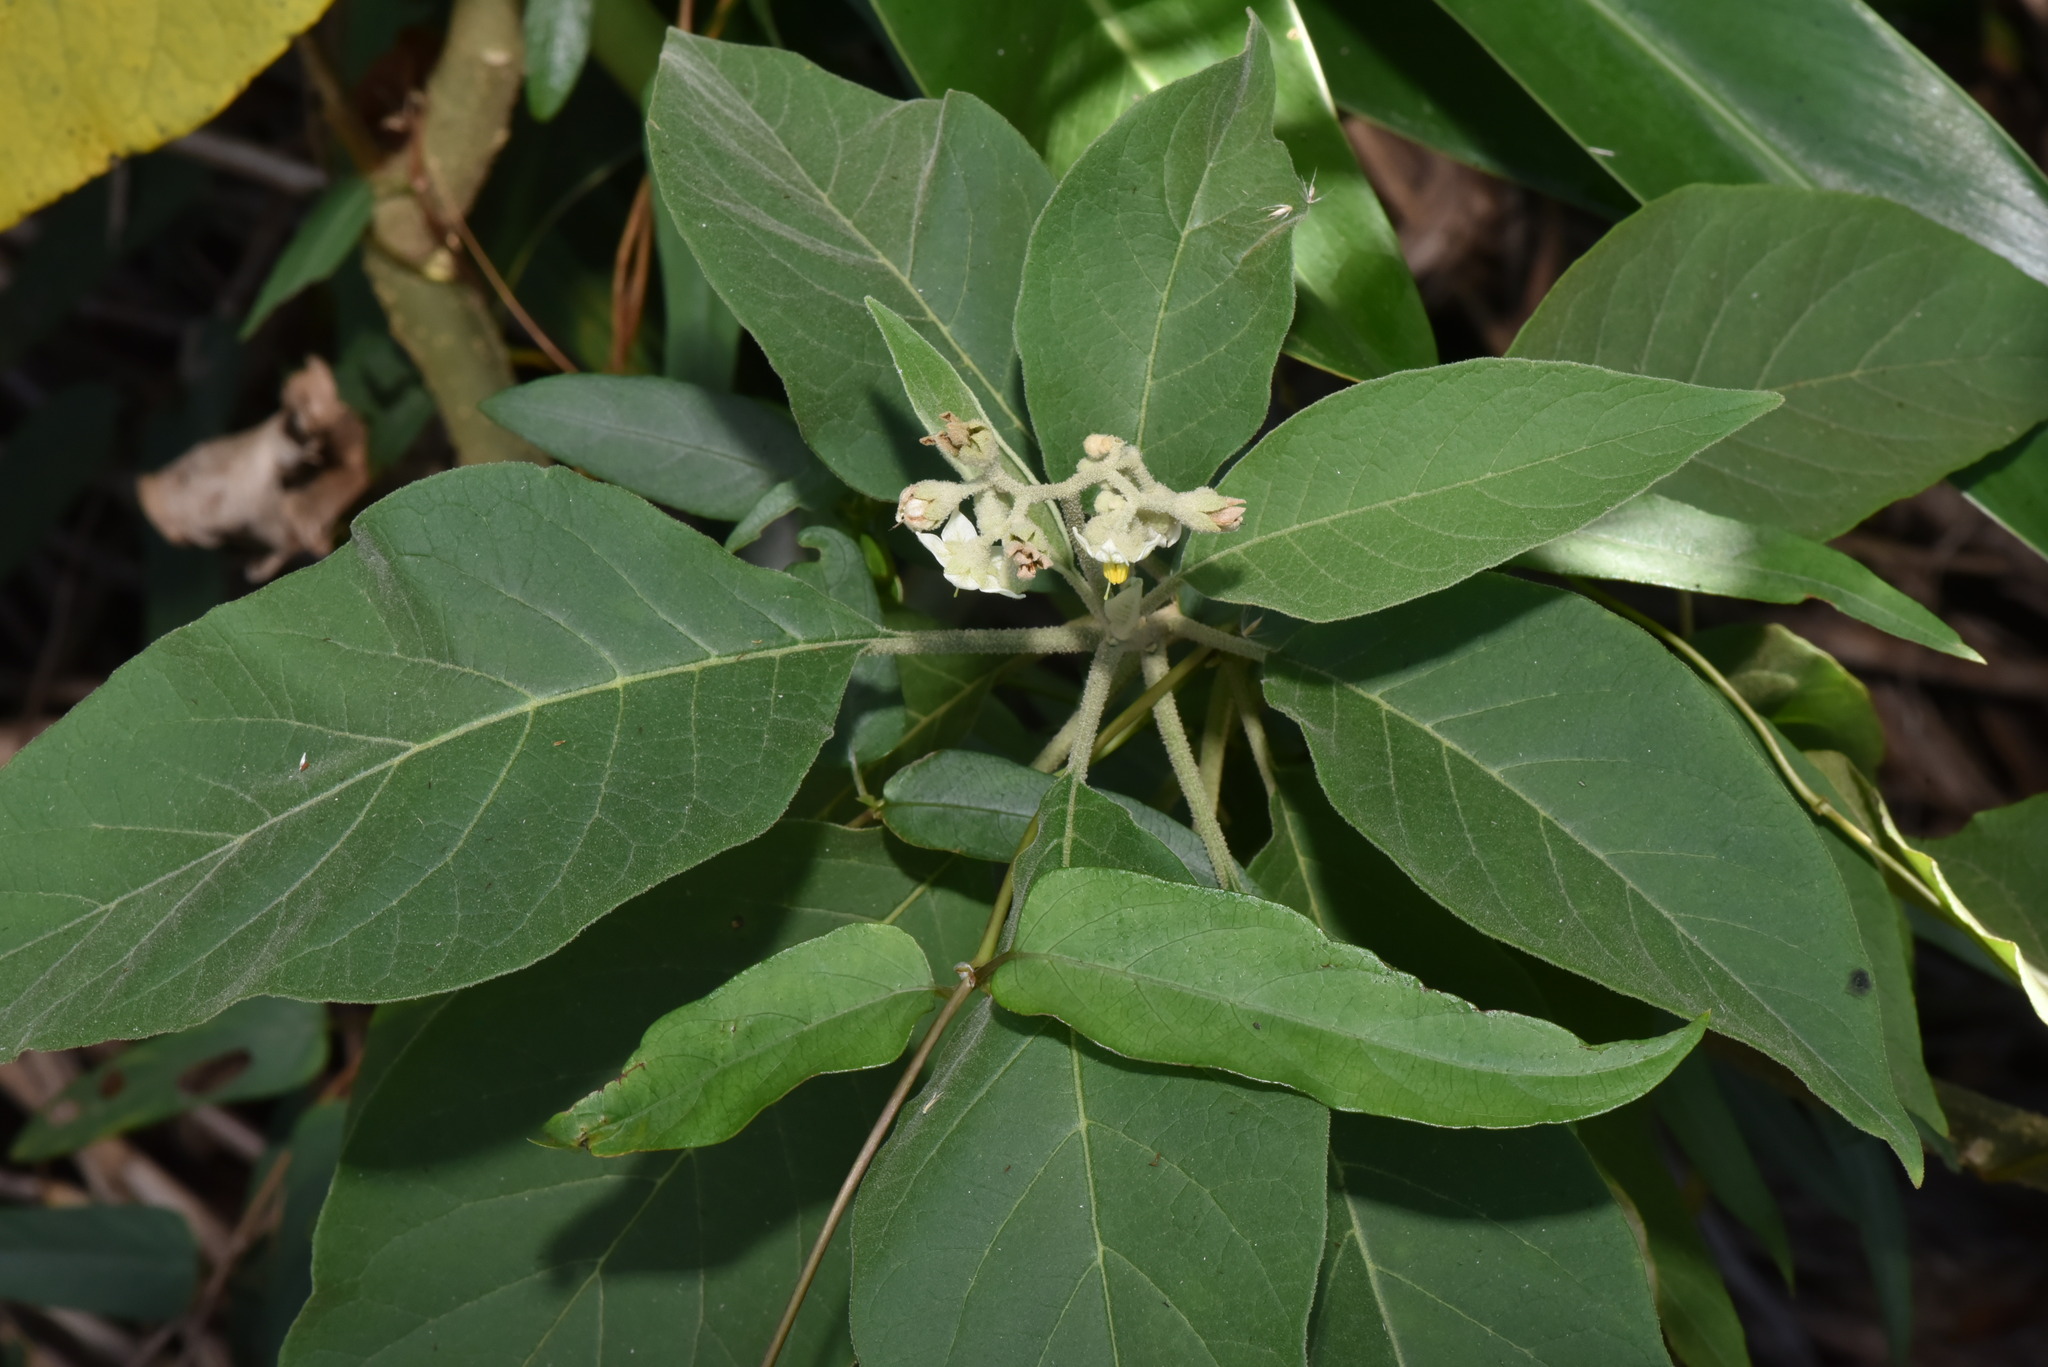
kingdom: Plantae
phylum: Tracheophyta
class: Magnoliopsida
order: Solanales
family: Solanaceae
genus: Solanum
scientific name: Solanum erianthum
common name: Tobacco-tree
